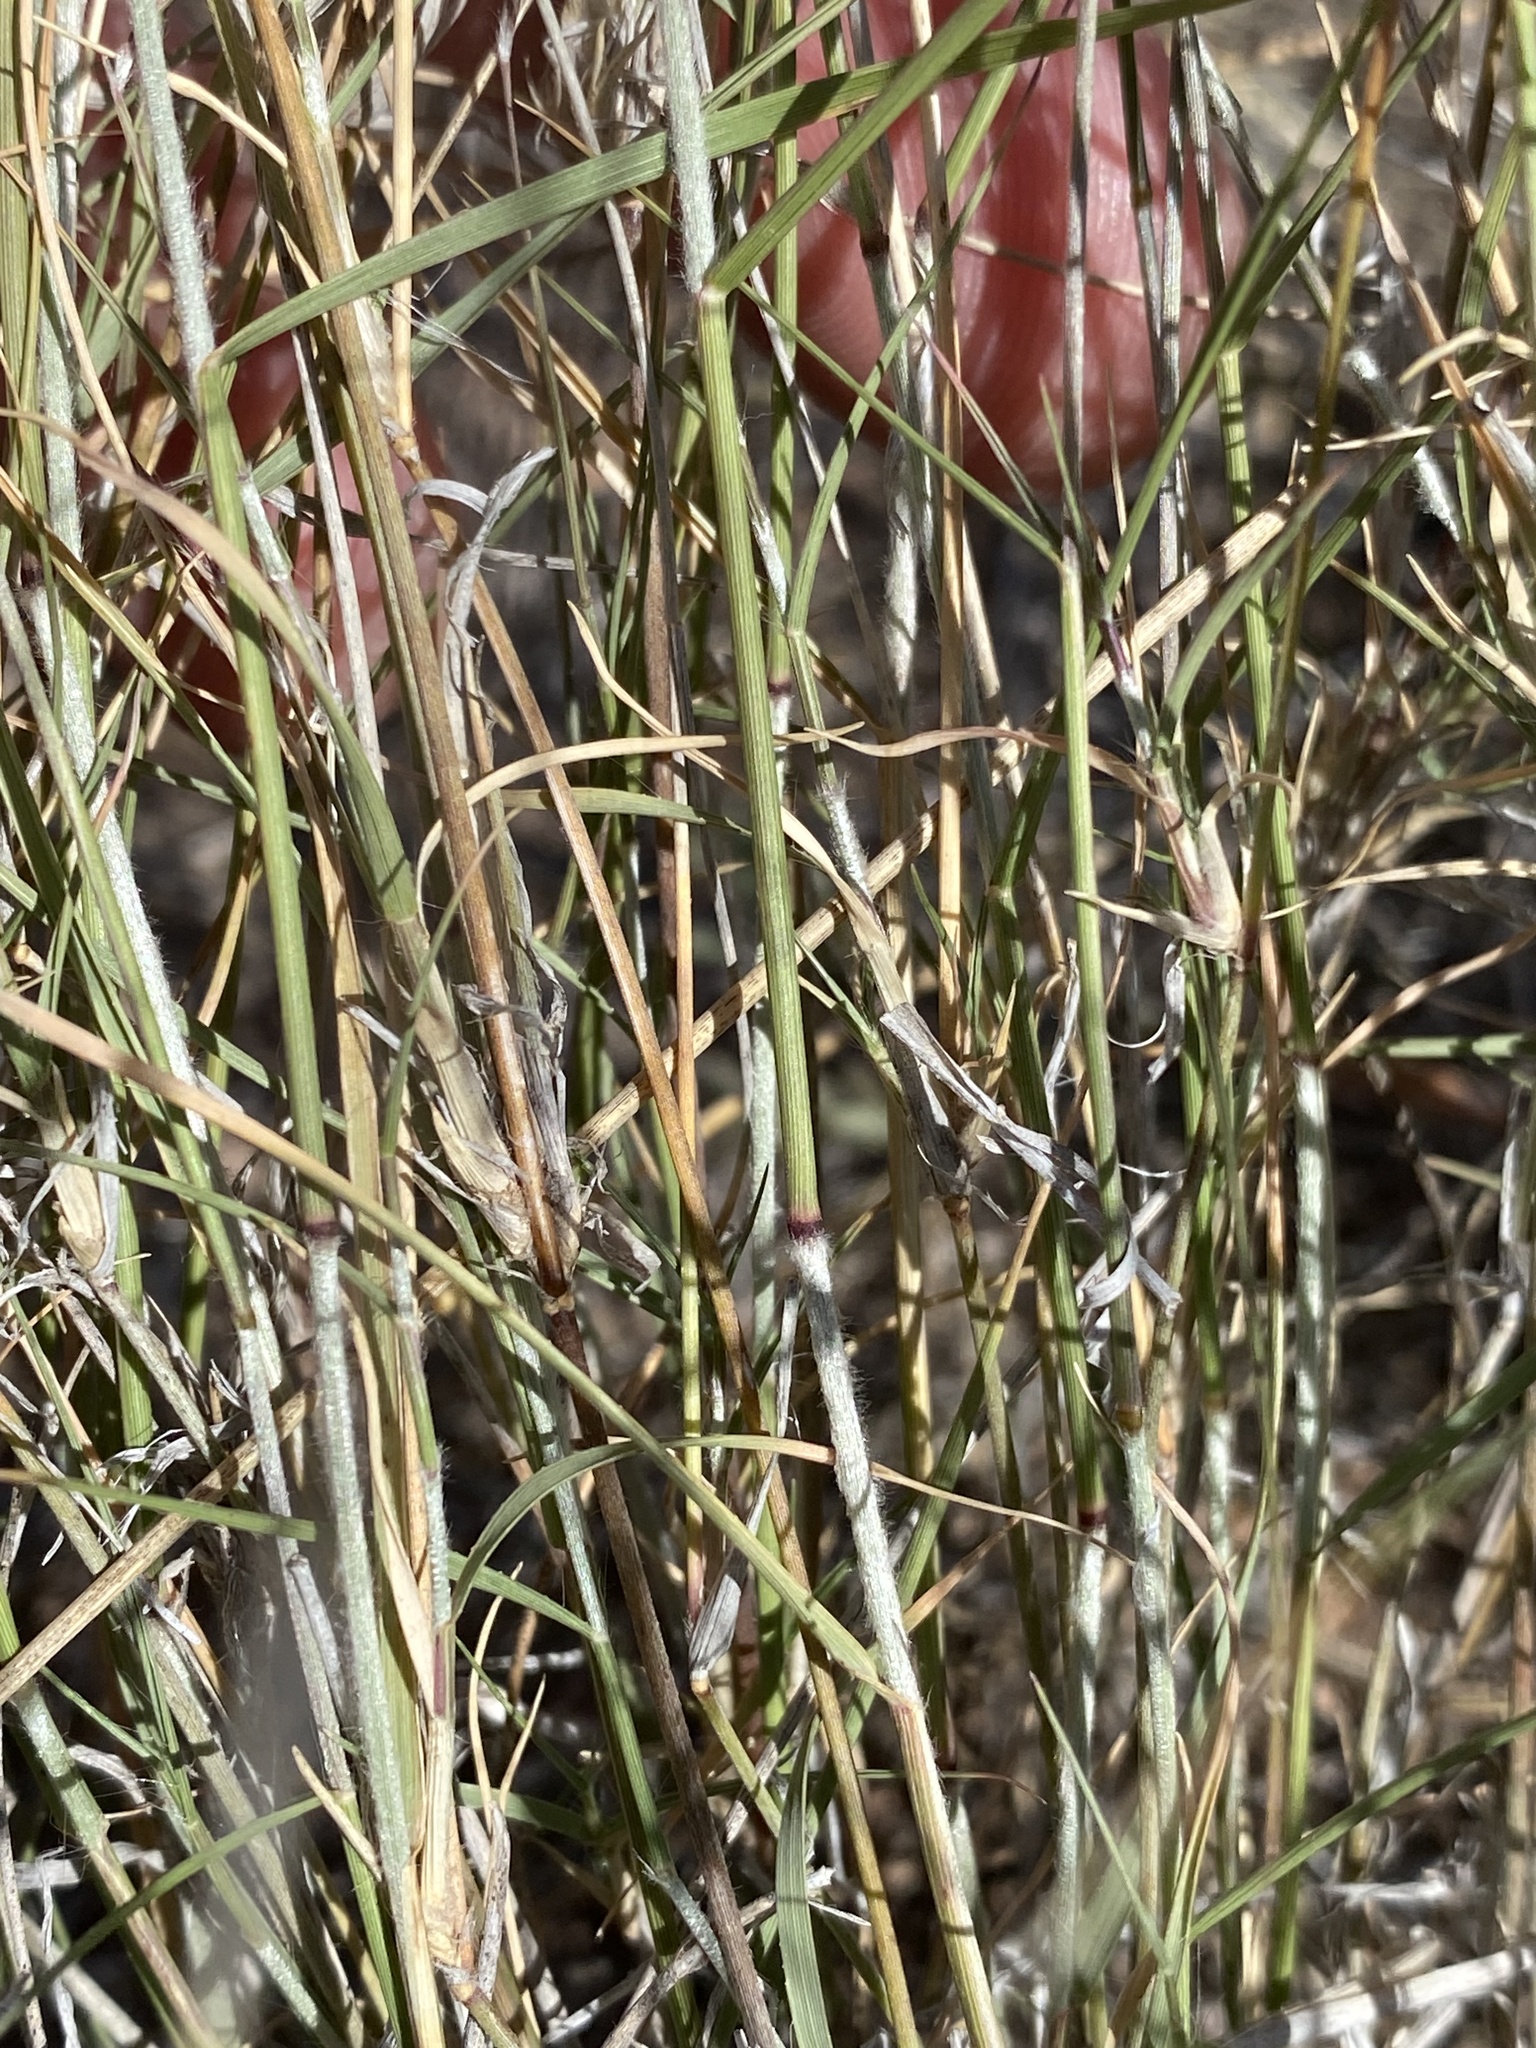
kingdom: Plantae
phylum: Tracheophyta
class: Liliopsida
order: Poales
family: Poaceae
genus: Bouteloua
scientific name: Bouteloua eriopoda
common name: Woolly foot grama
